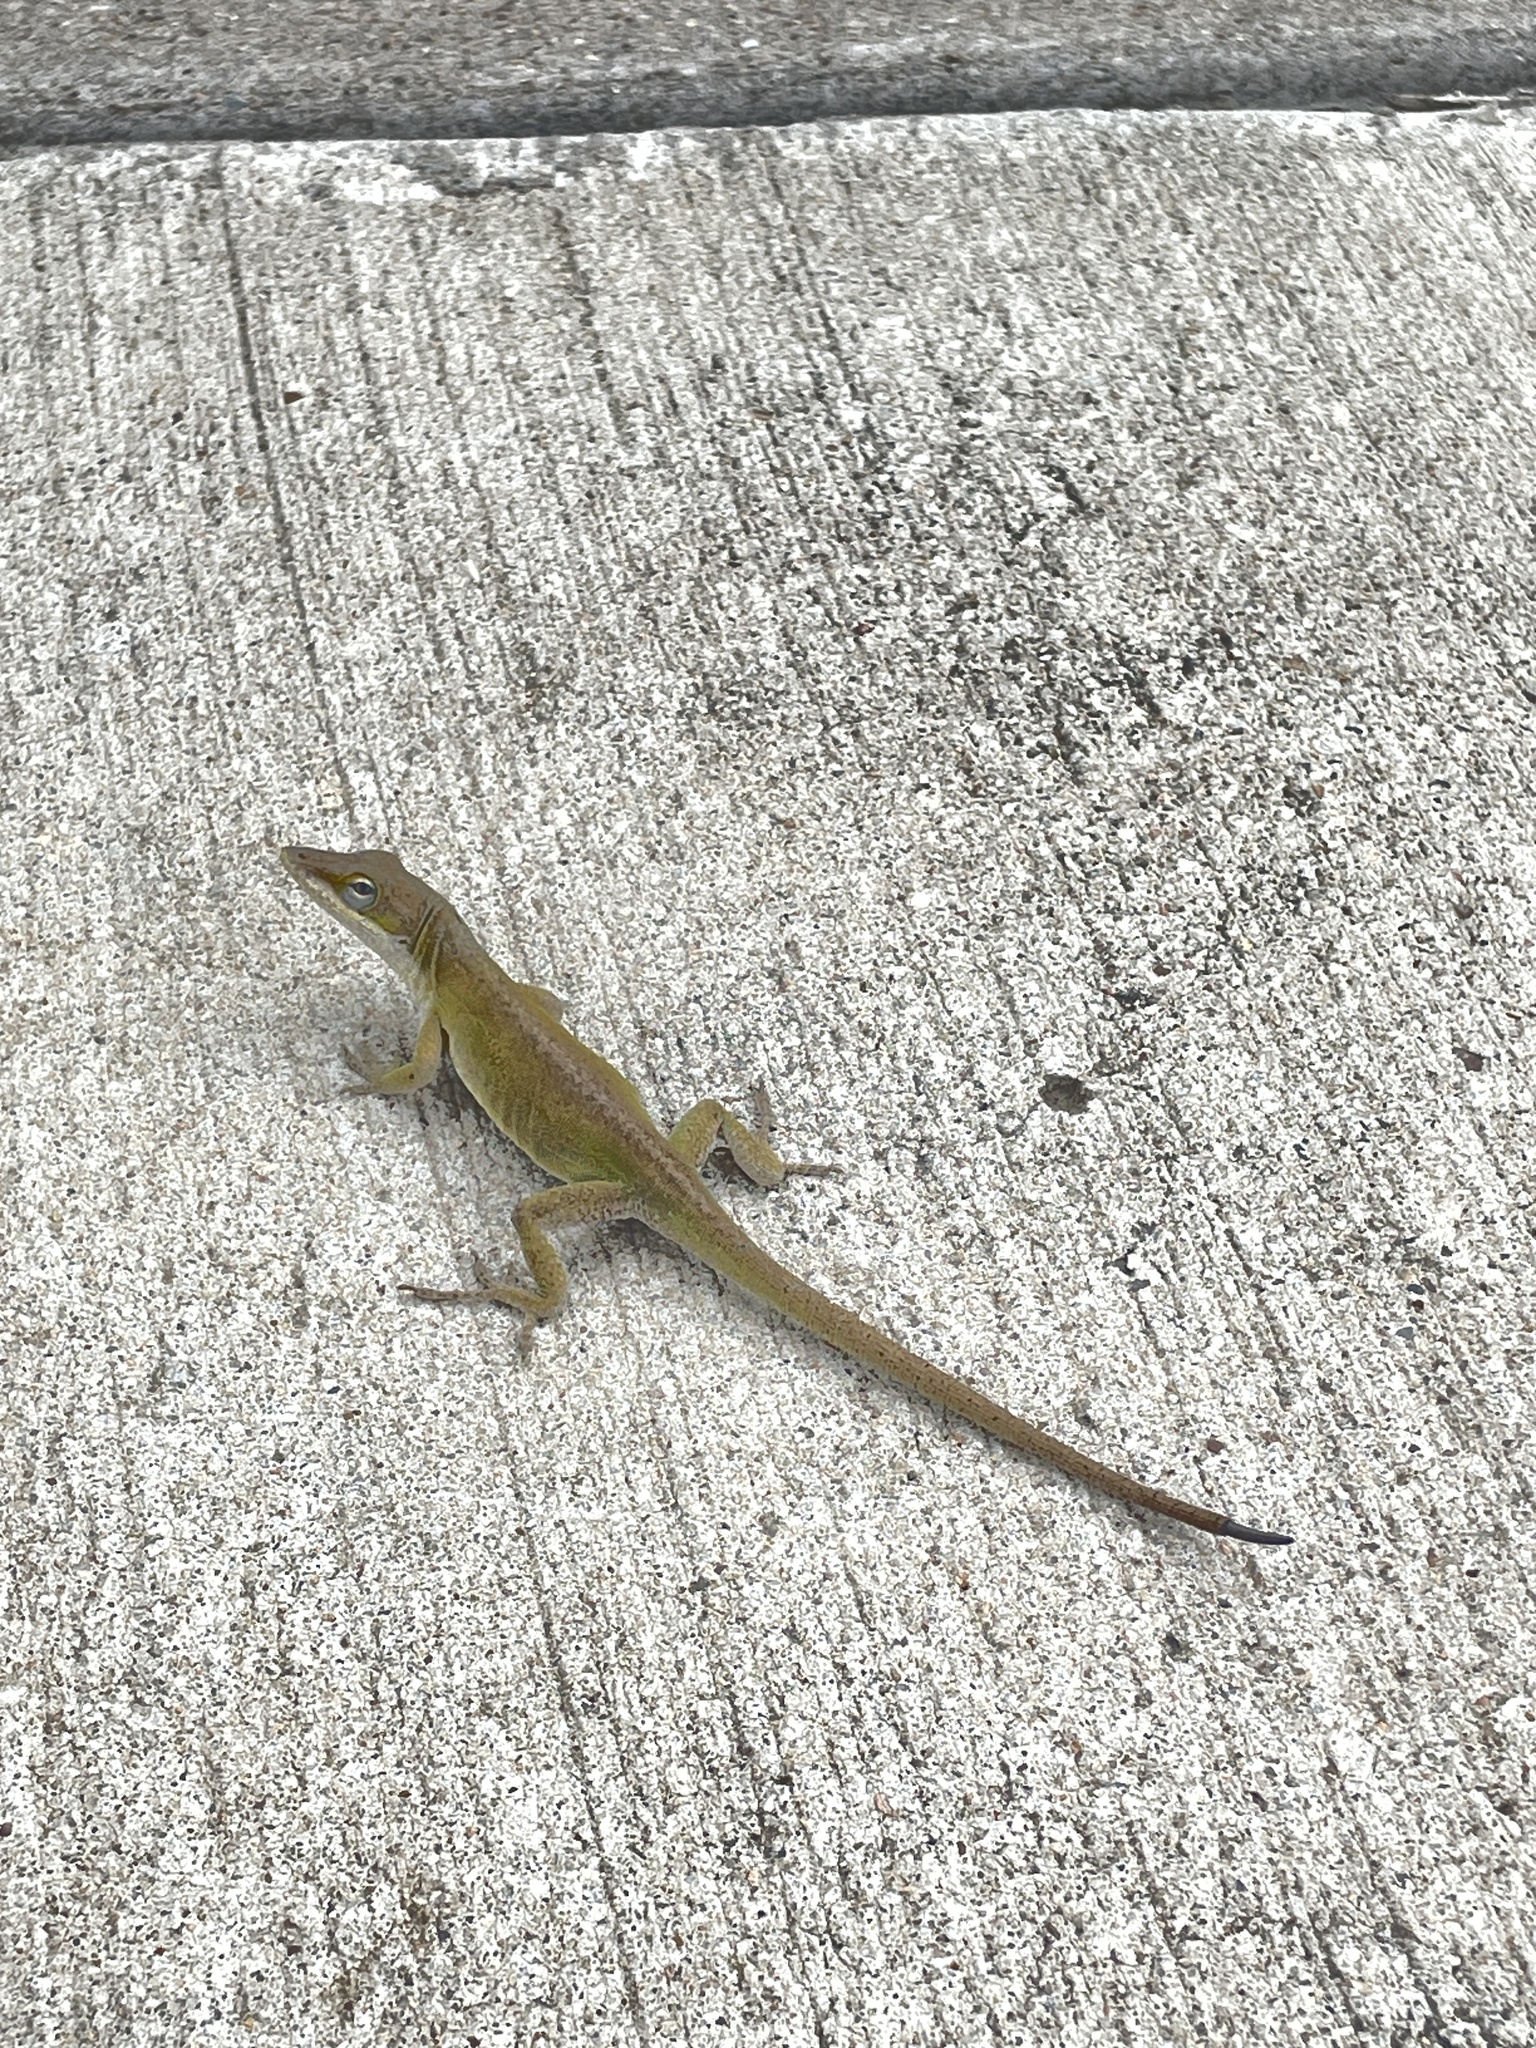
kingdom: Animalia
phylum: Chordata
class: Squamata
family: Dactyloidae
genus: Anolis
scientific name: Anolis carolinensis
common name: Green anole
